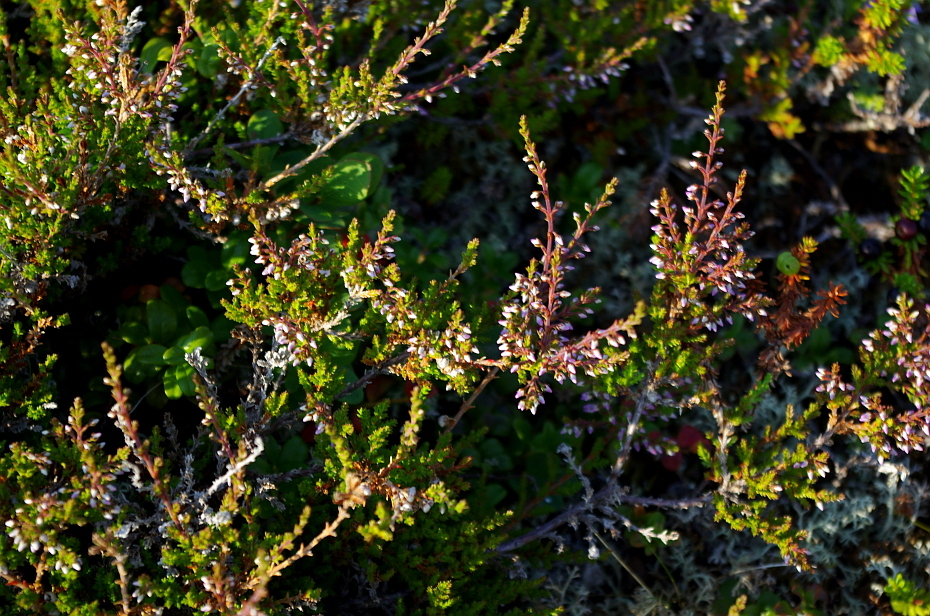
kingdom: Plantae
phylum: Tracheophyta
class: Magnoliopsida
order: Ericales
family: Ericaceae
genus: Calluna
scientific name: Calluna vulgaris
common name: Heather
